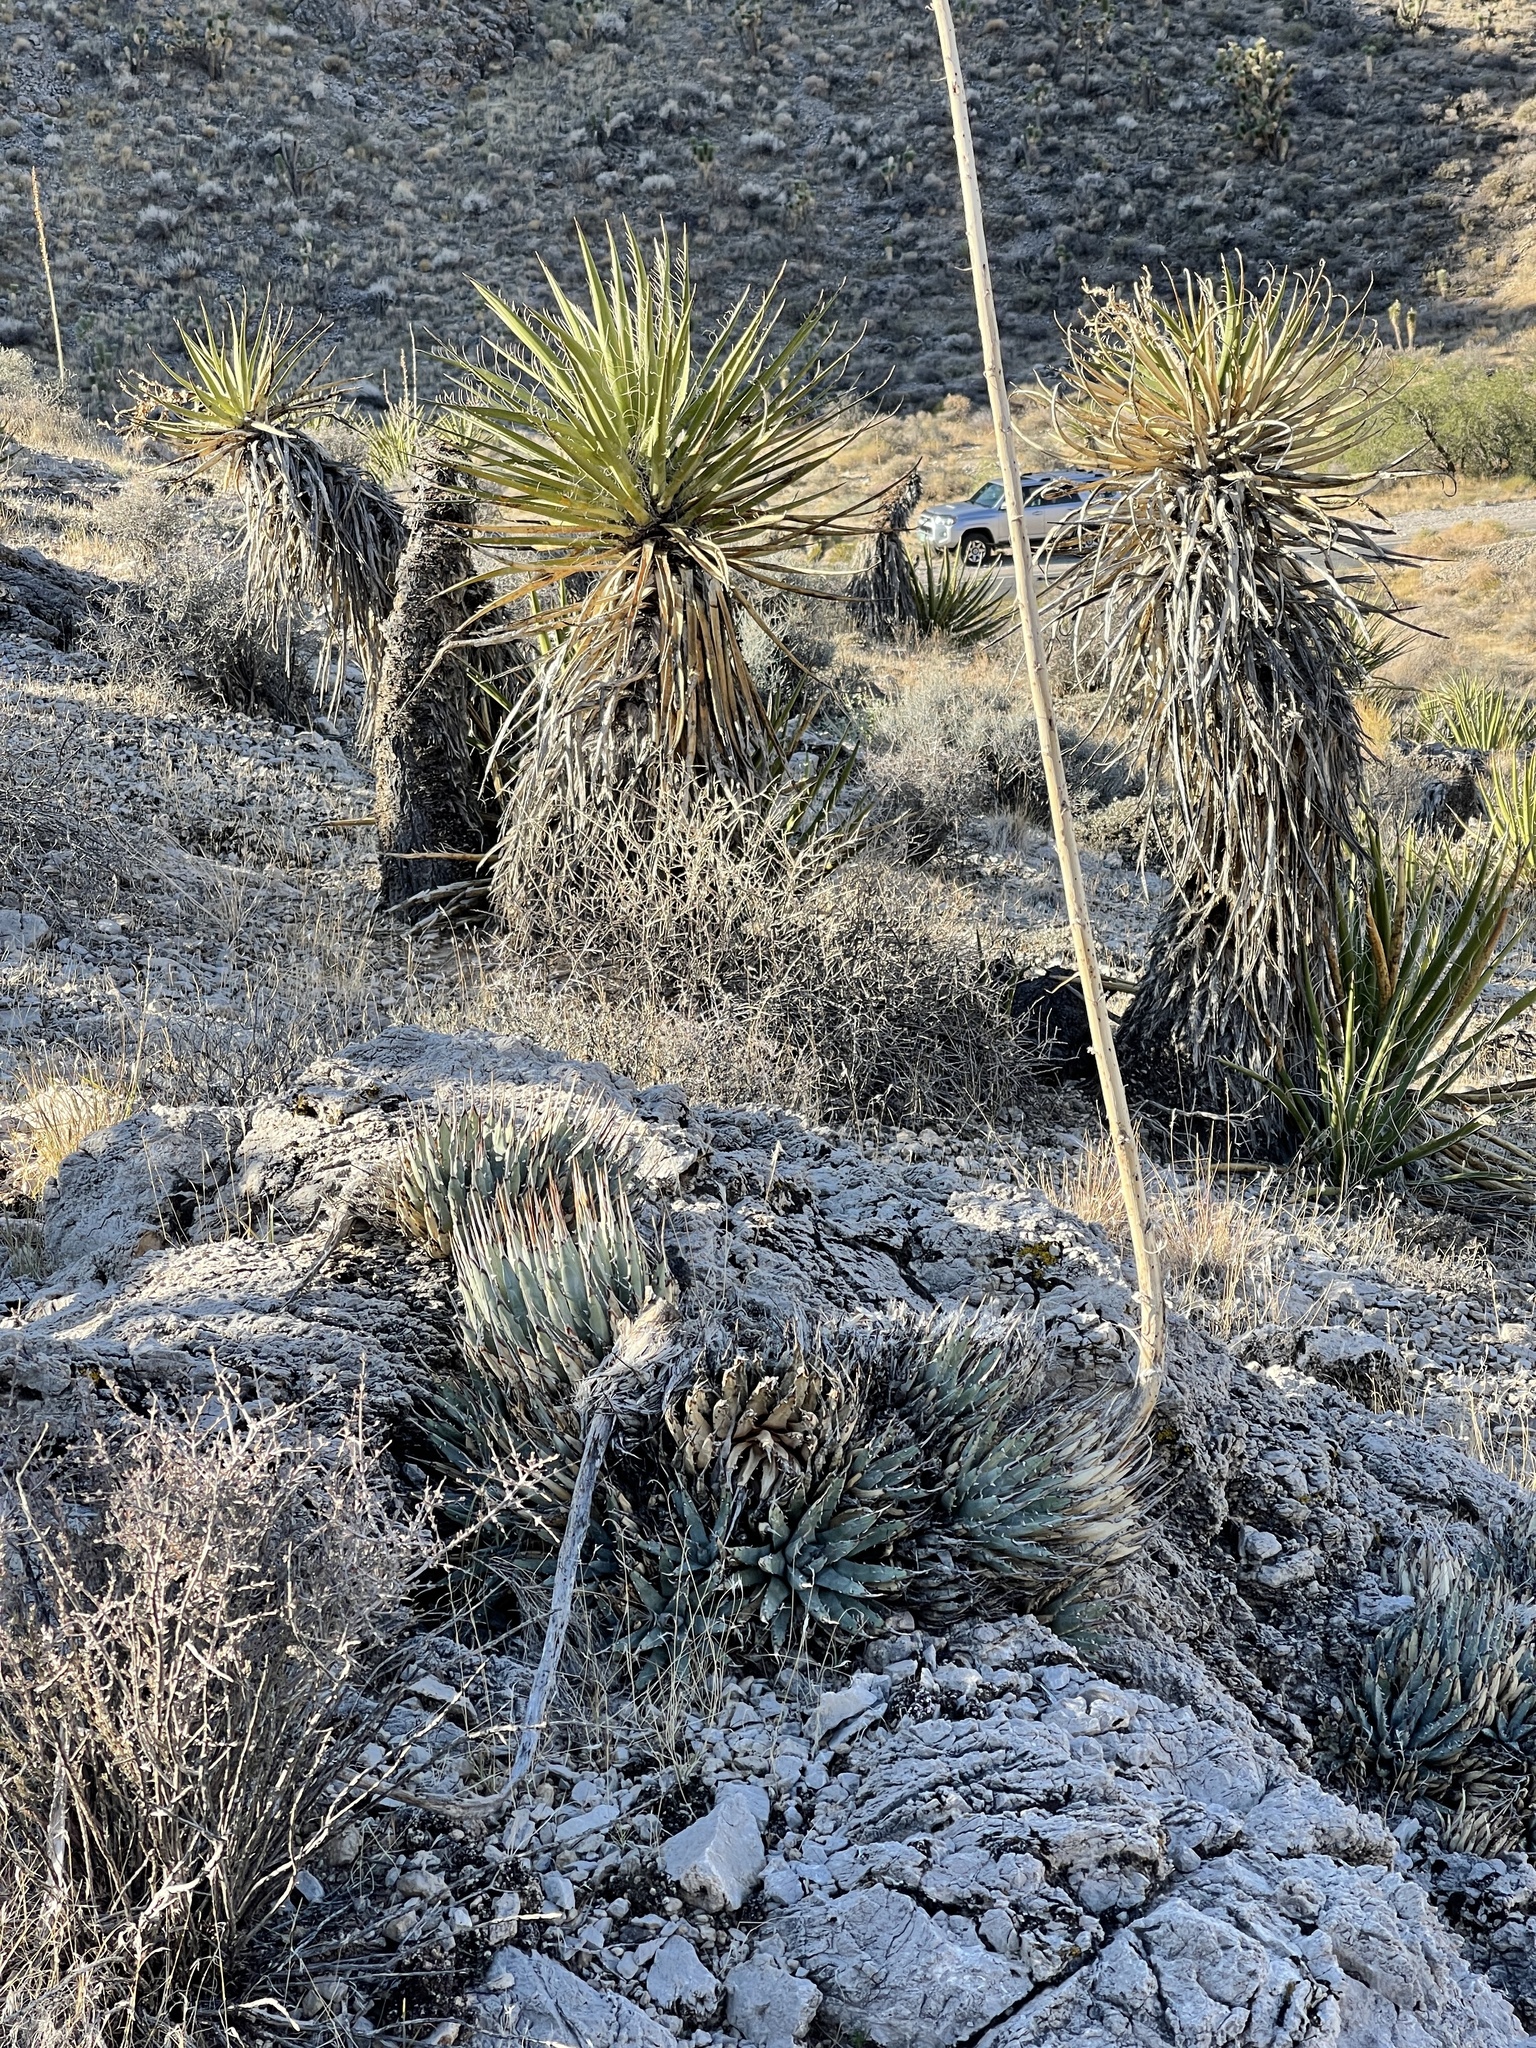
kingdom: Plantae
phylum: Tracheophyta
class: Liliopsida
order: Asparagales
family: Asparagaceae
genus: Agave
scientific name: Agave utahensis
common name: Utah agave
